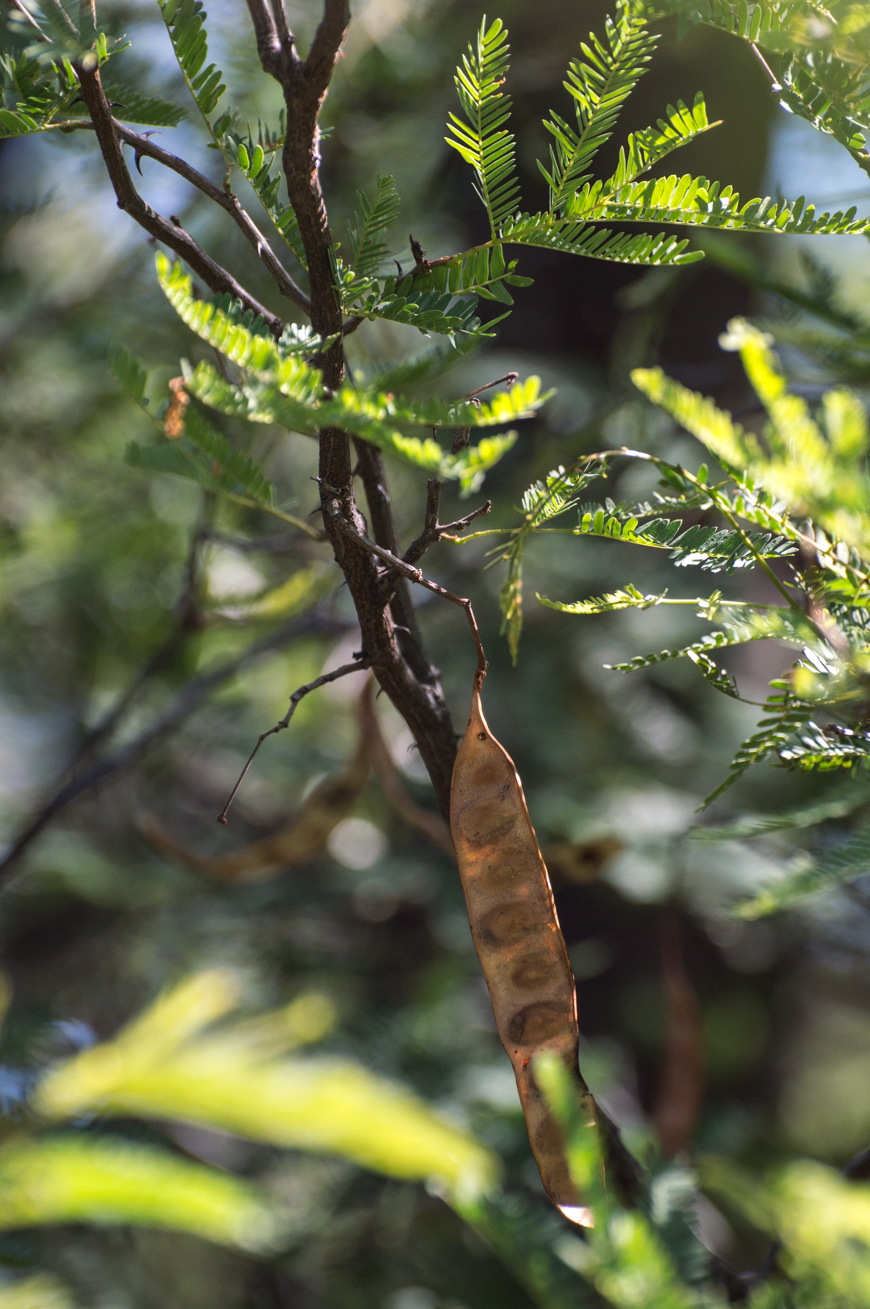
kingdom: Plantae
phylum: Tracheophyta
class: Magnoliopsida
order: Fabales
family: Fabaceae
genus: Senegalia
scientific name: Senegalia praecox
